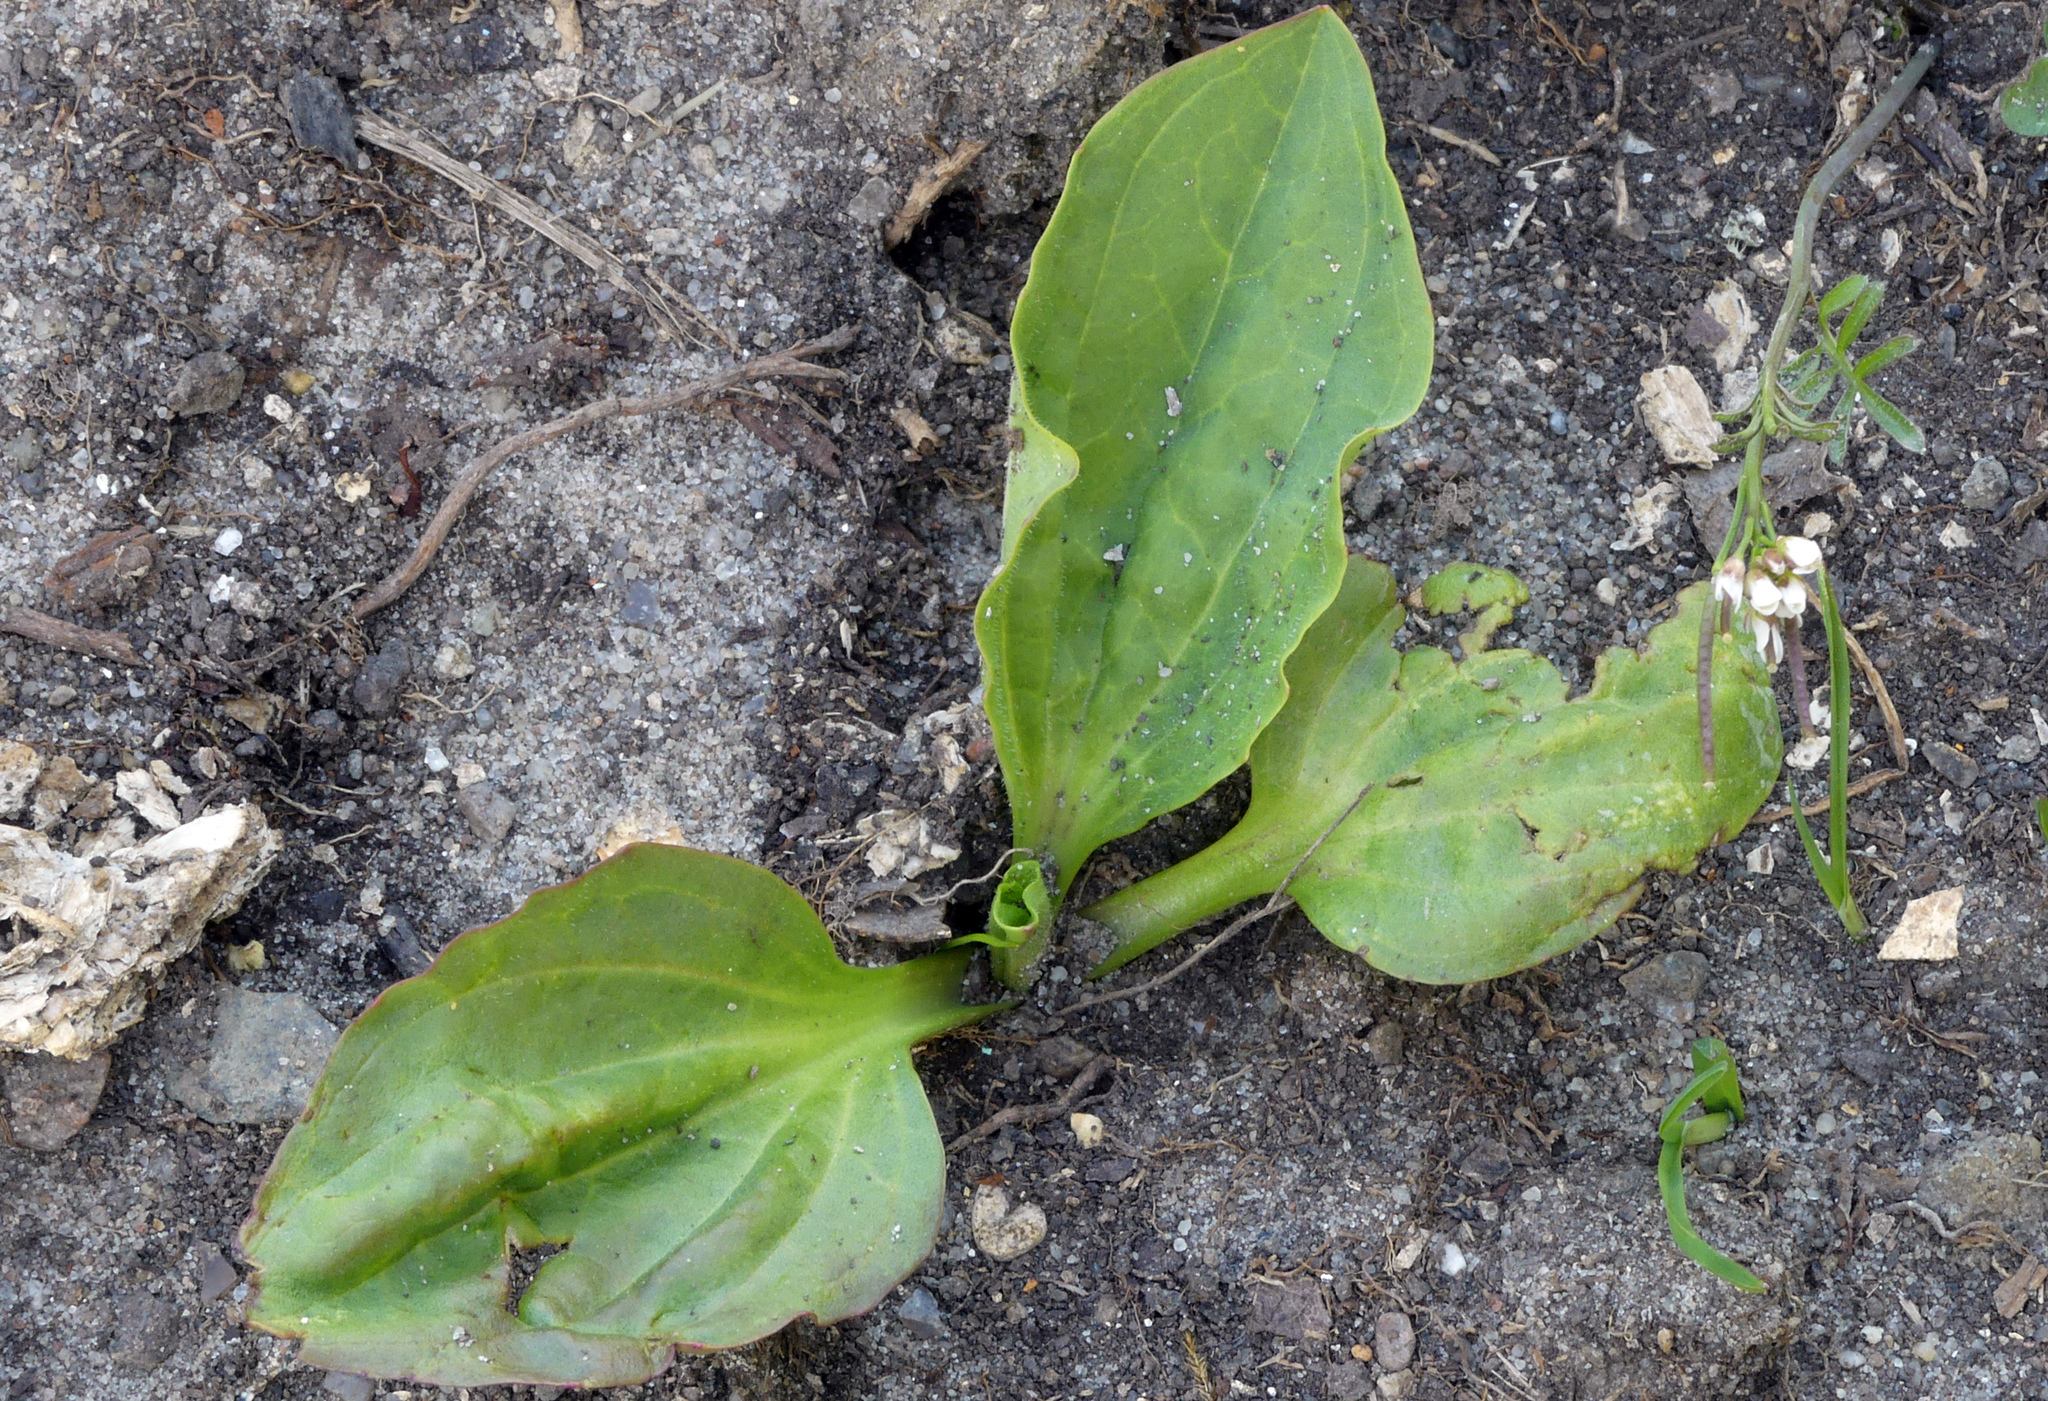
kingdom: Plantae
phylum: Tracheophyta
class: Magnoliopsida
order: Lamiales
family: Plantaginaceae
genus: Plantago
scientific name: Plantago major
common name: Common plantain
